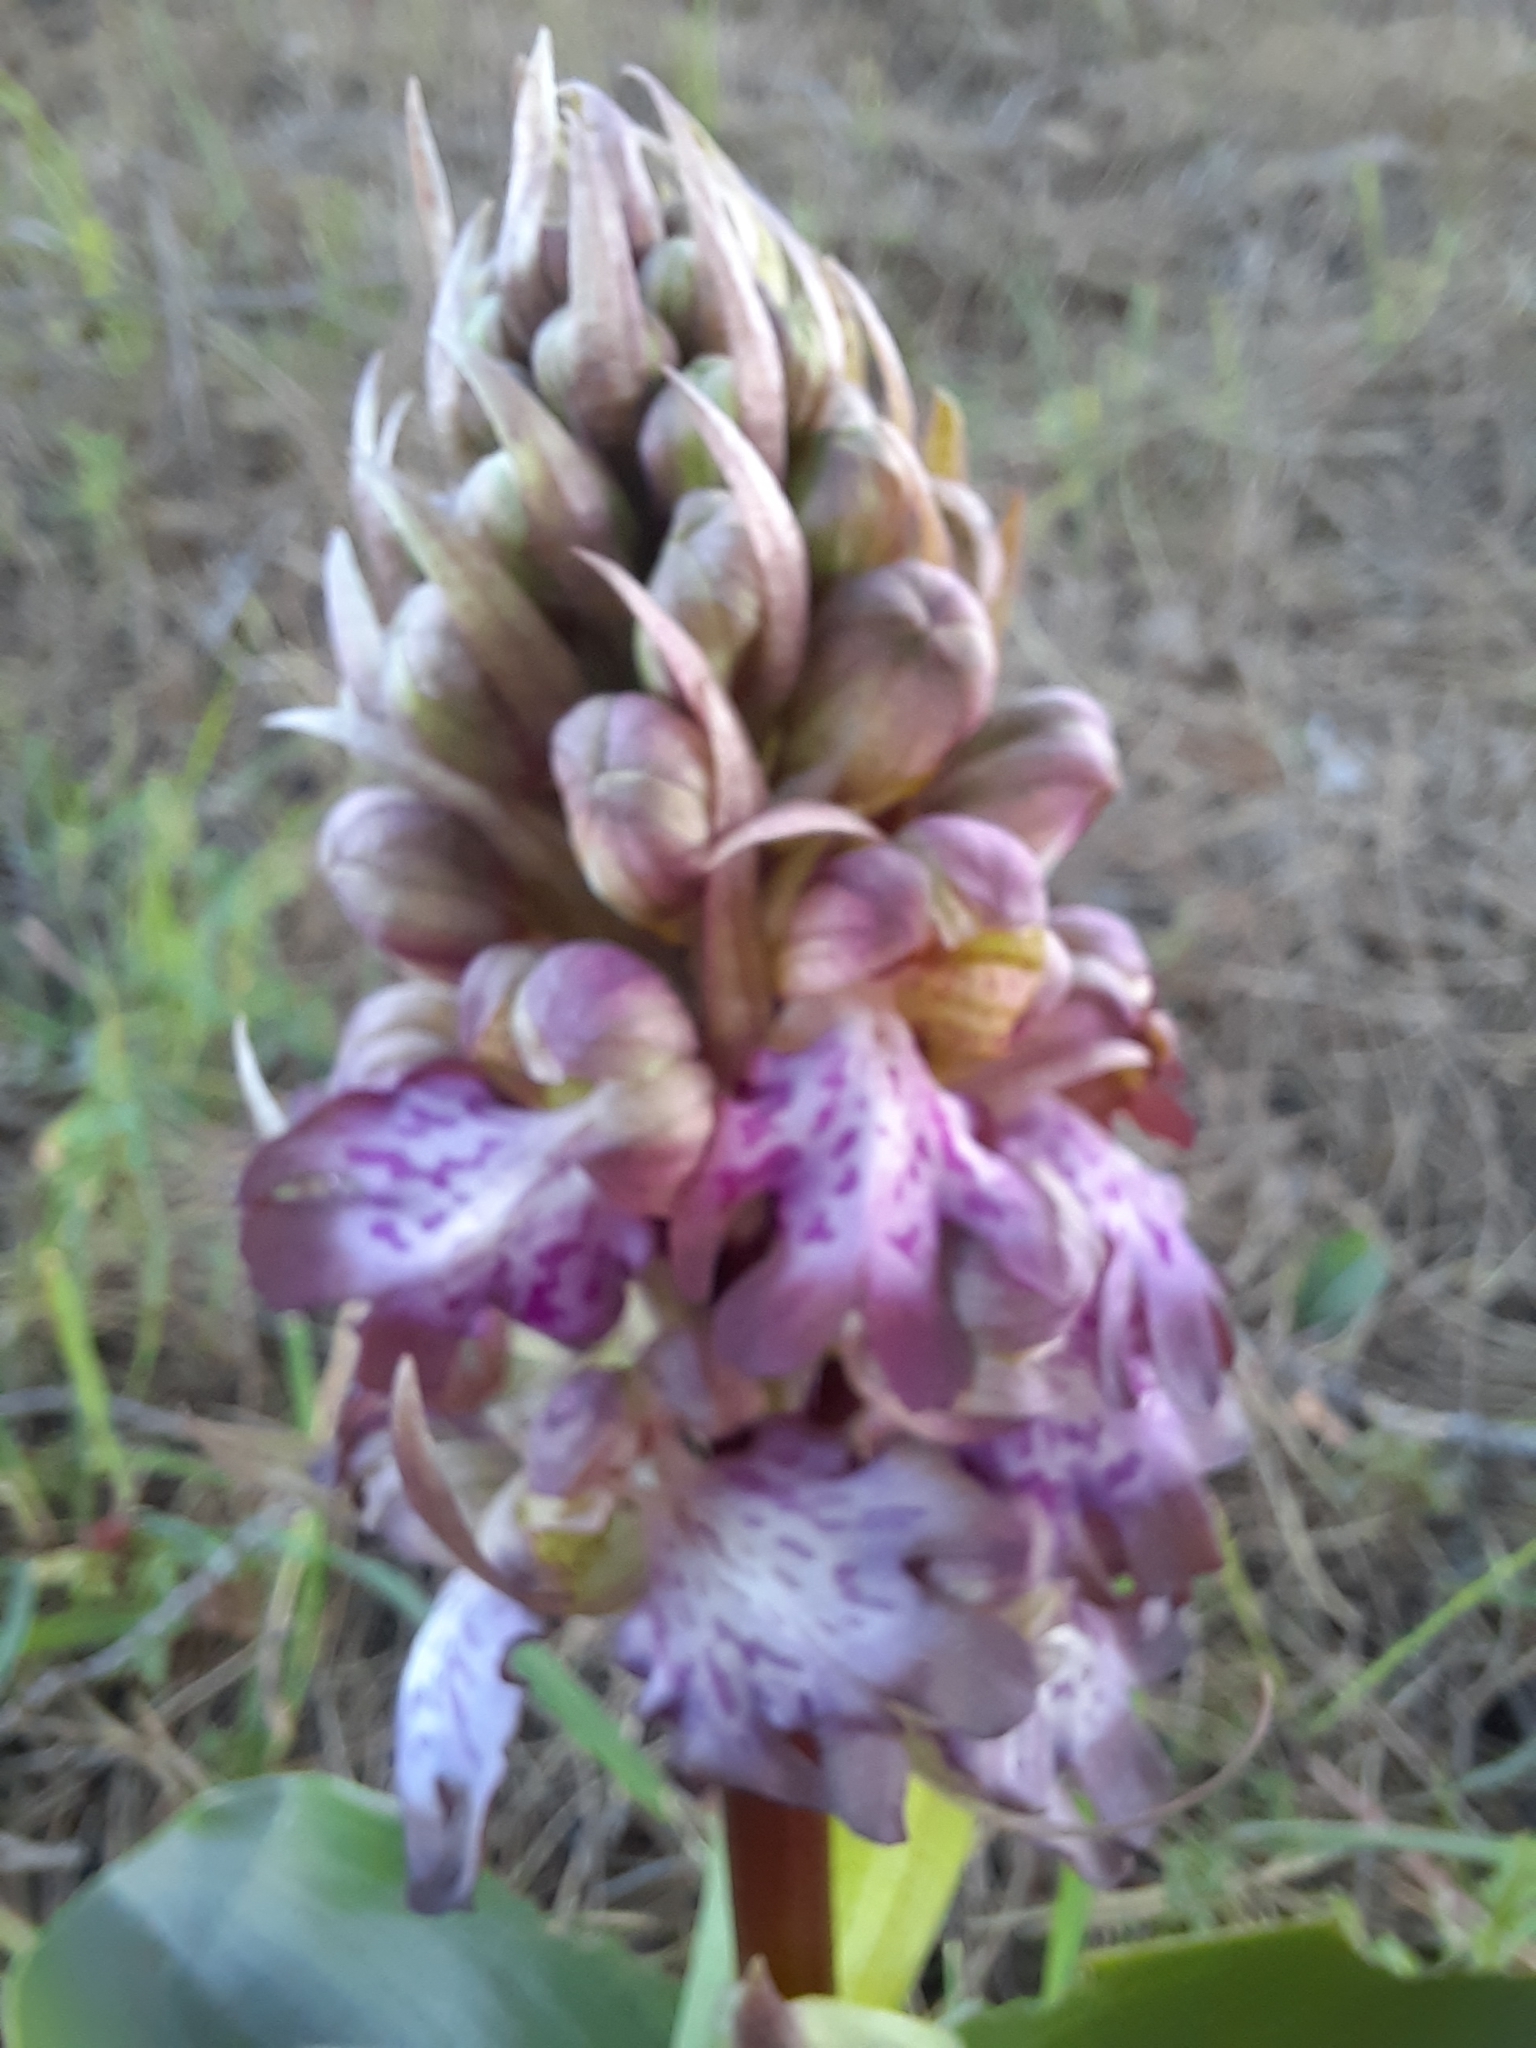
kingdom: Plantae
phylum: Tracheophyta
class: Liliopsida
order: Asparagales
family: Orchidaceae
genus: Himantoglossum
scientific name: Himantoglossum robertianum
